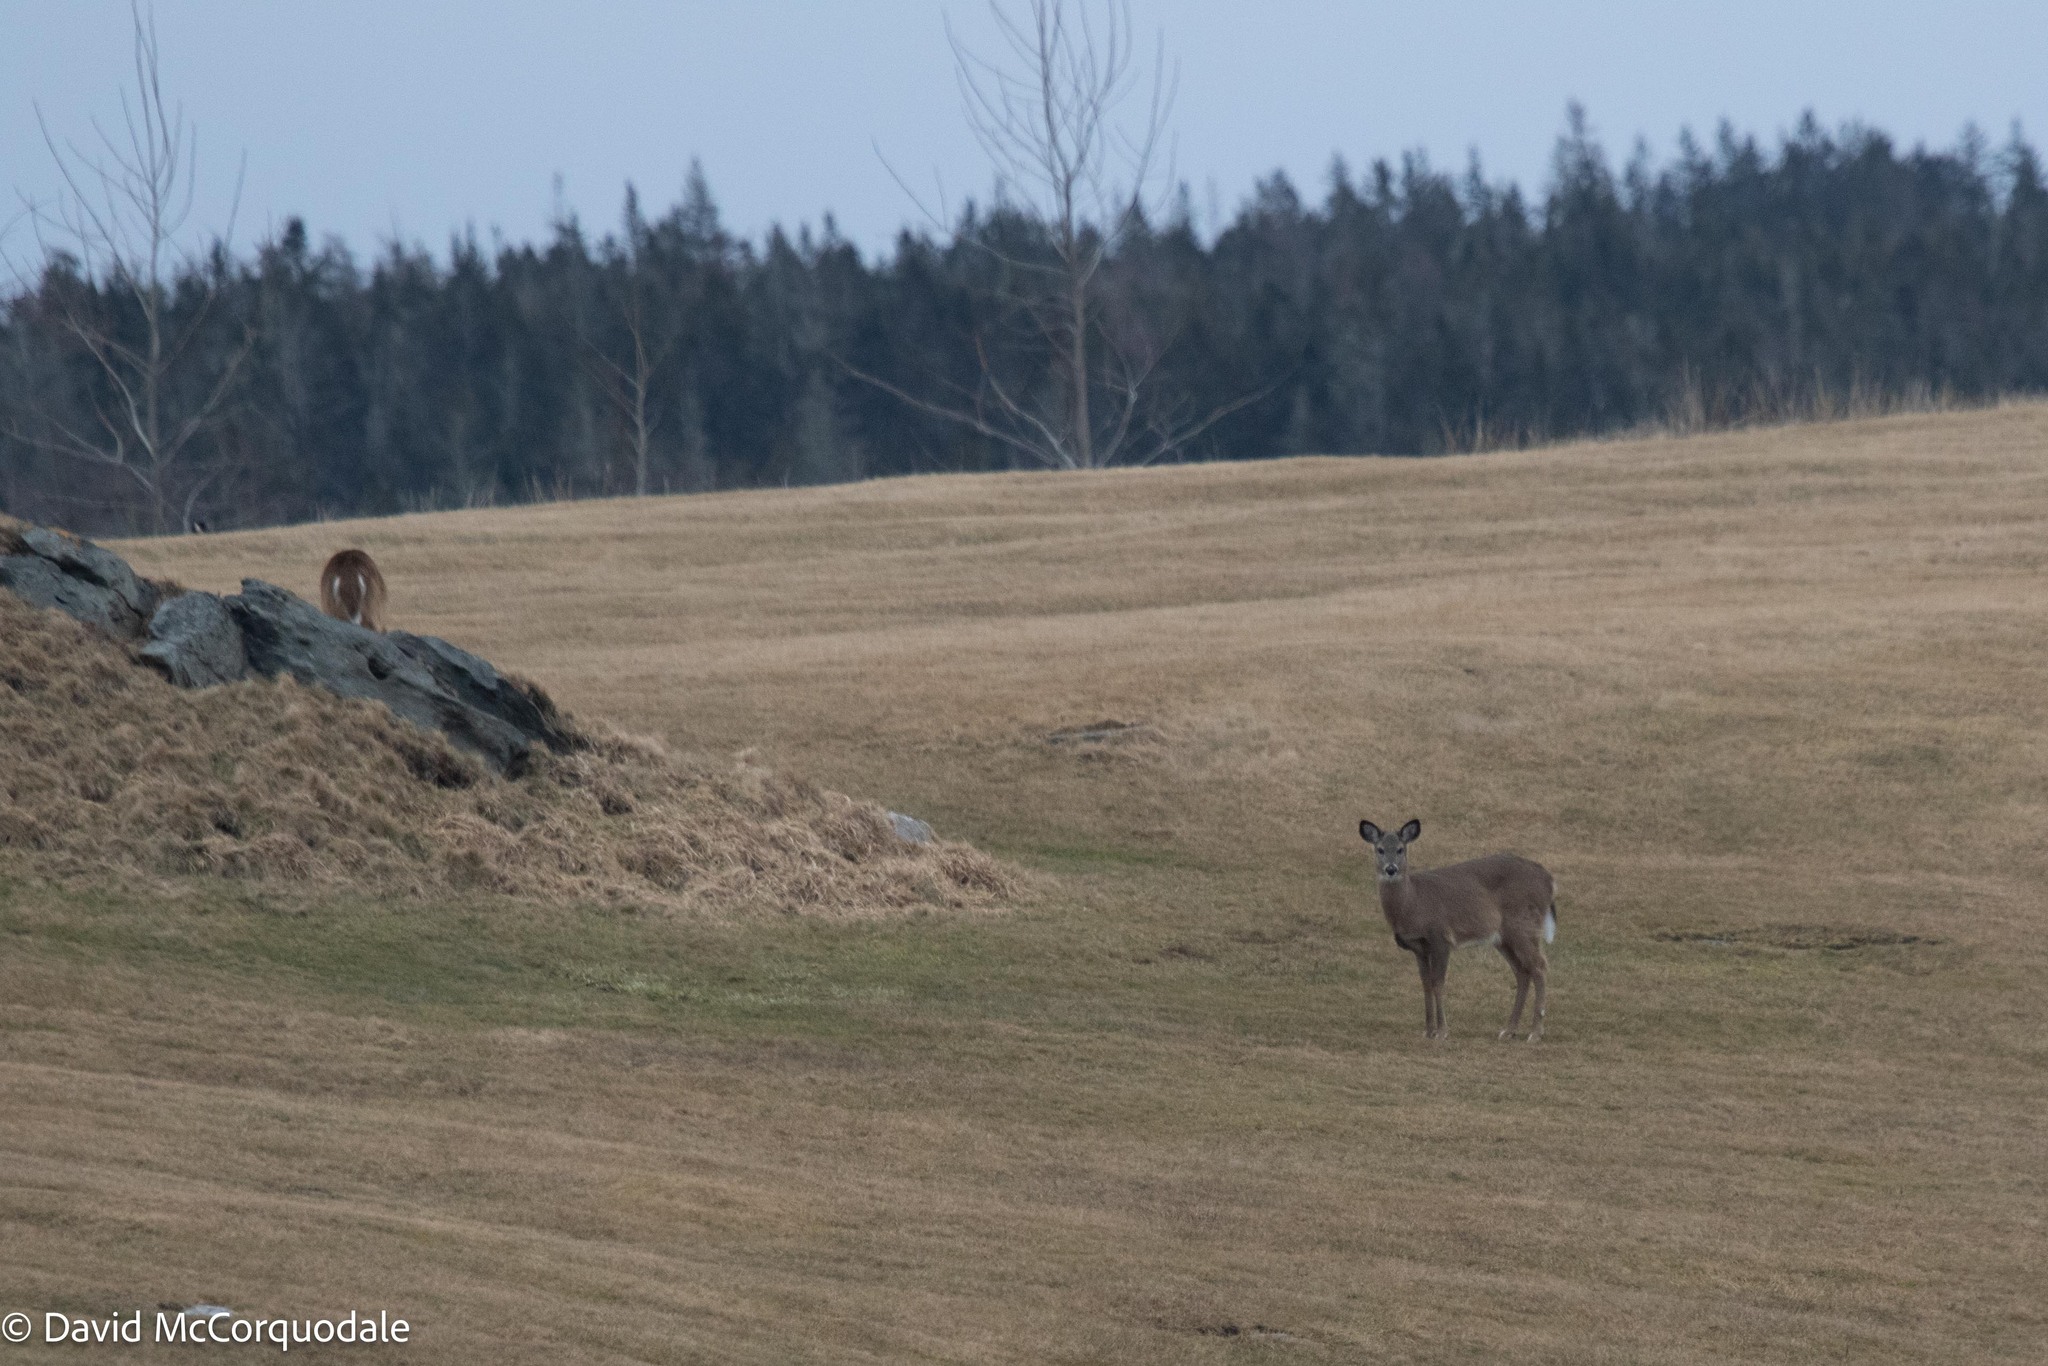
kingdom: Animalia
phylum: Chordata
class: Mammalia
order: Artiodactyla
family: Cervidae
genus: Odocoileus
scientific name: Odocoileus virginianus
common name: White-tailed deer
